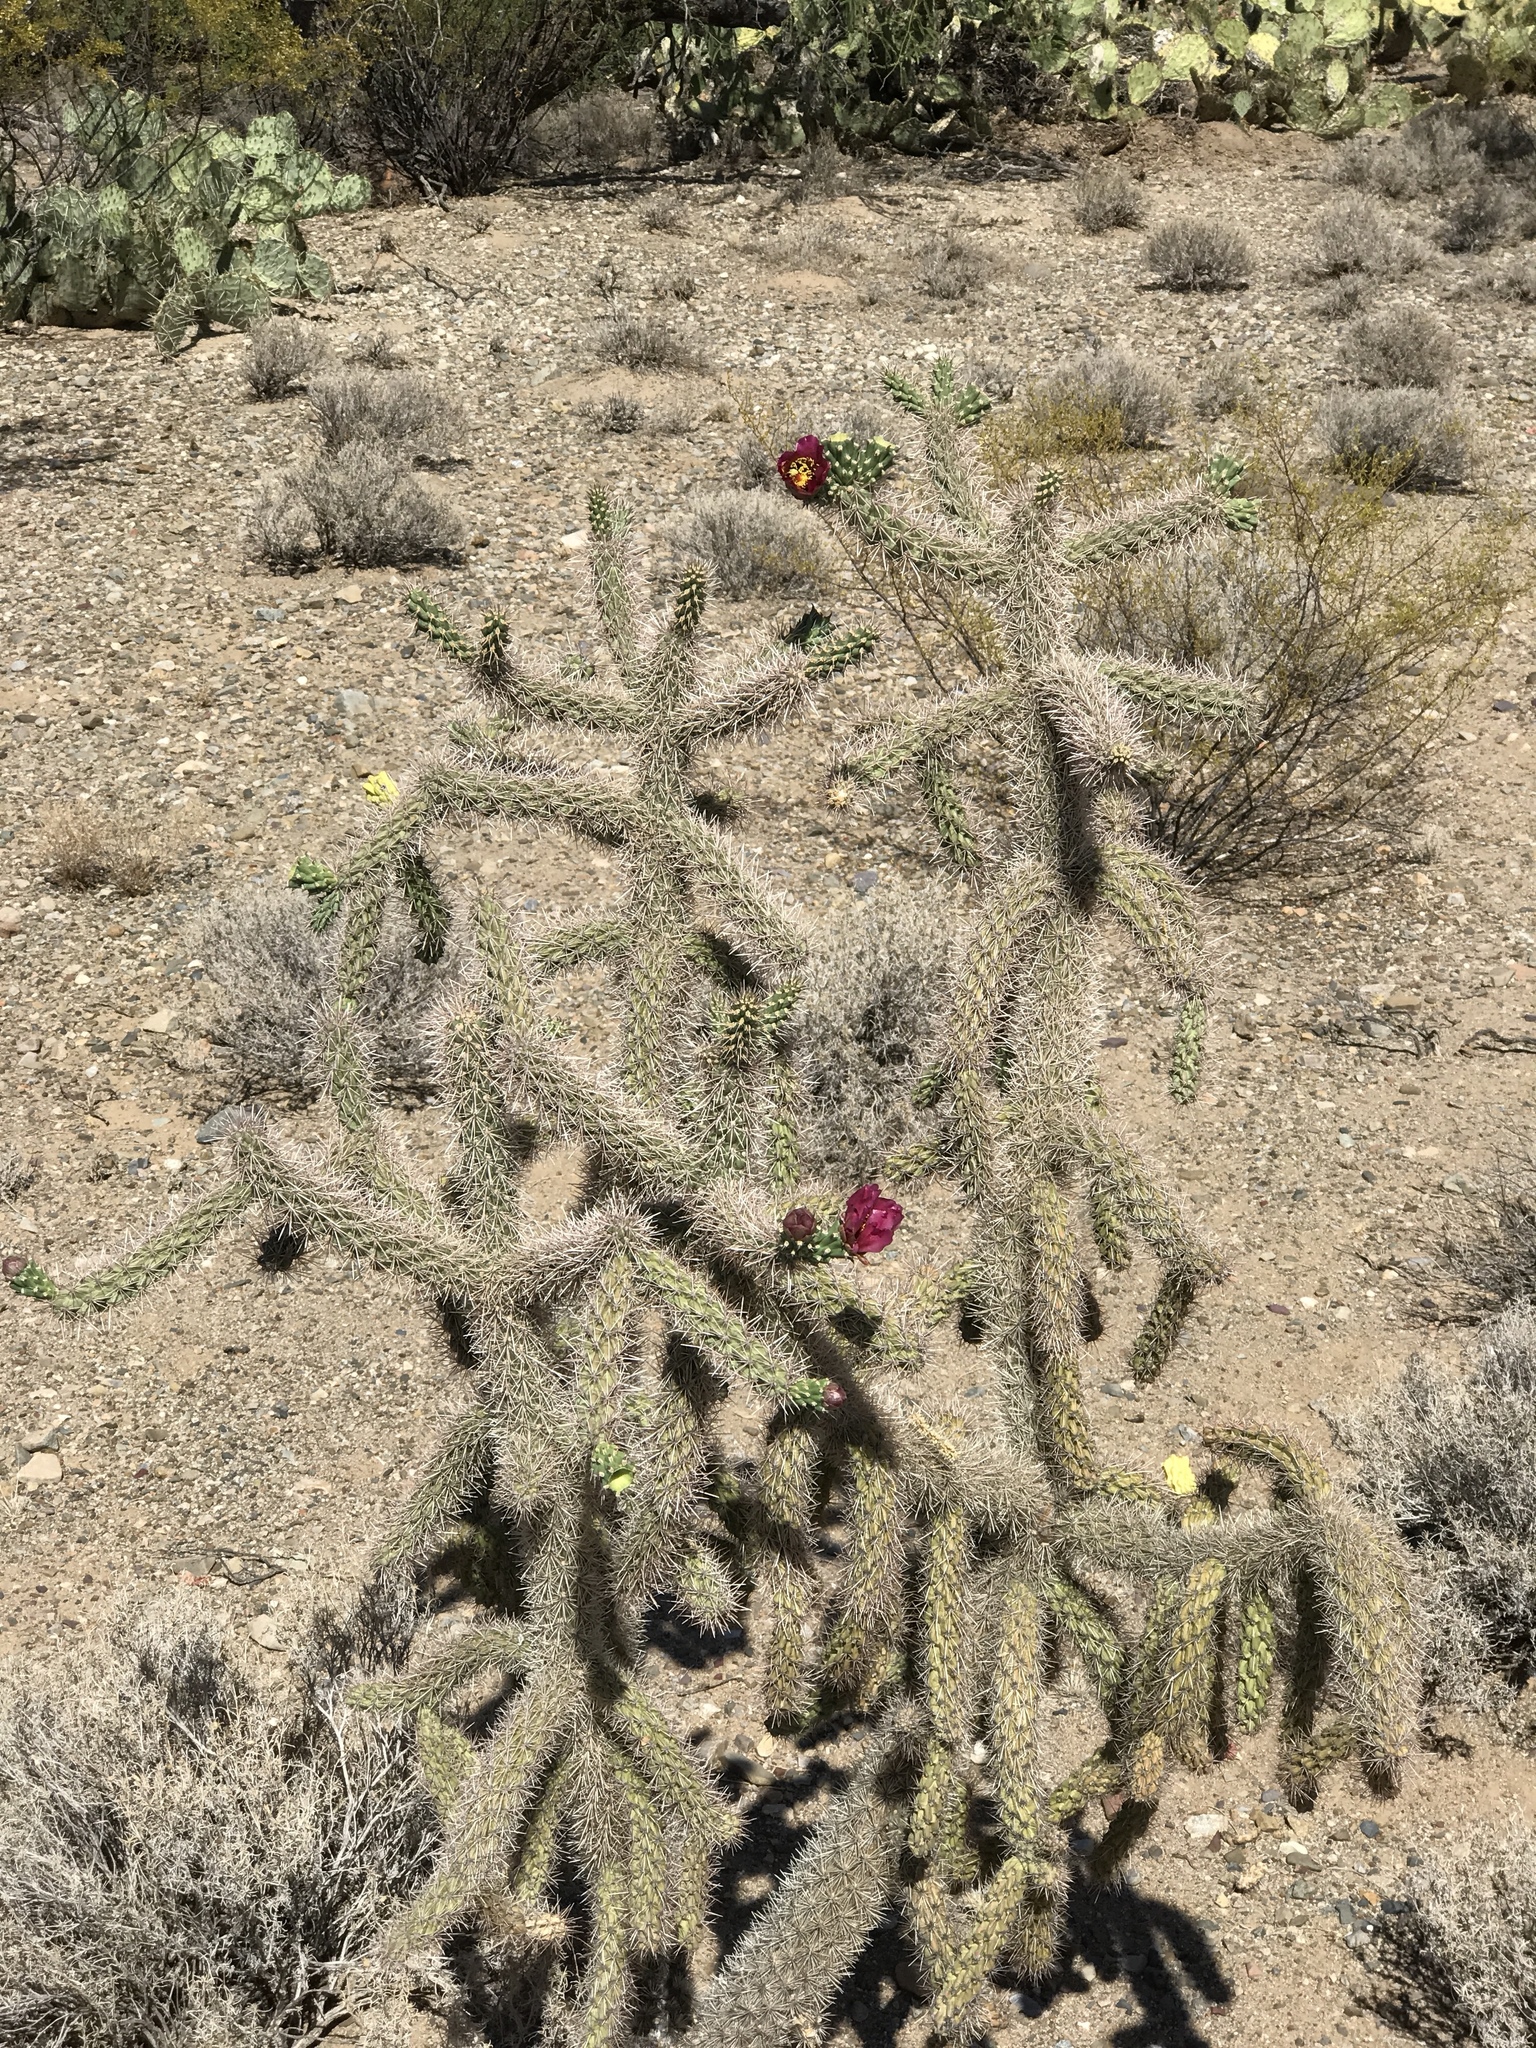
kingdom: Plantae
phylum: Tracheophyta
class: Magnoliopsida
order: Caryophyllales
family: Cactaceae
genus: Cylindropuntia
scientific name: Cylindropuntia imbricata
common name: Candelabrum cactus
